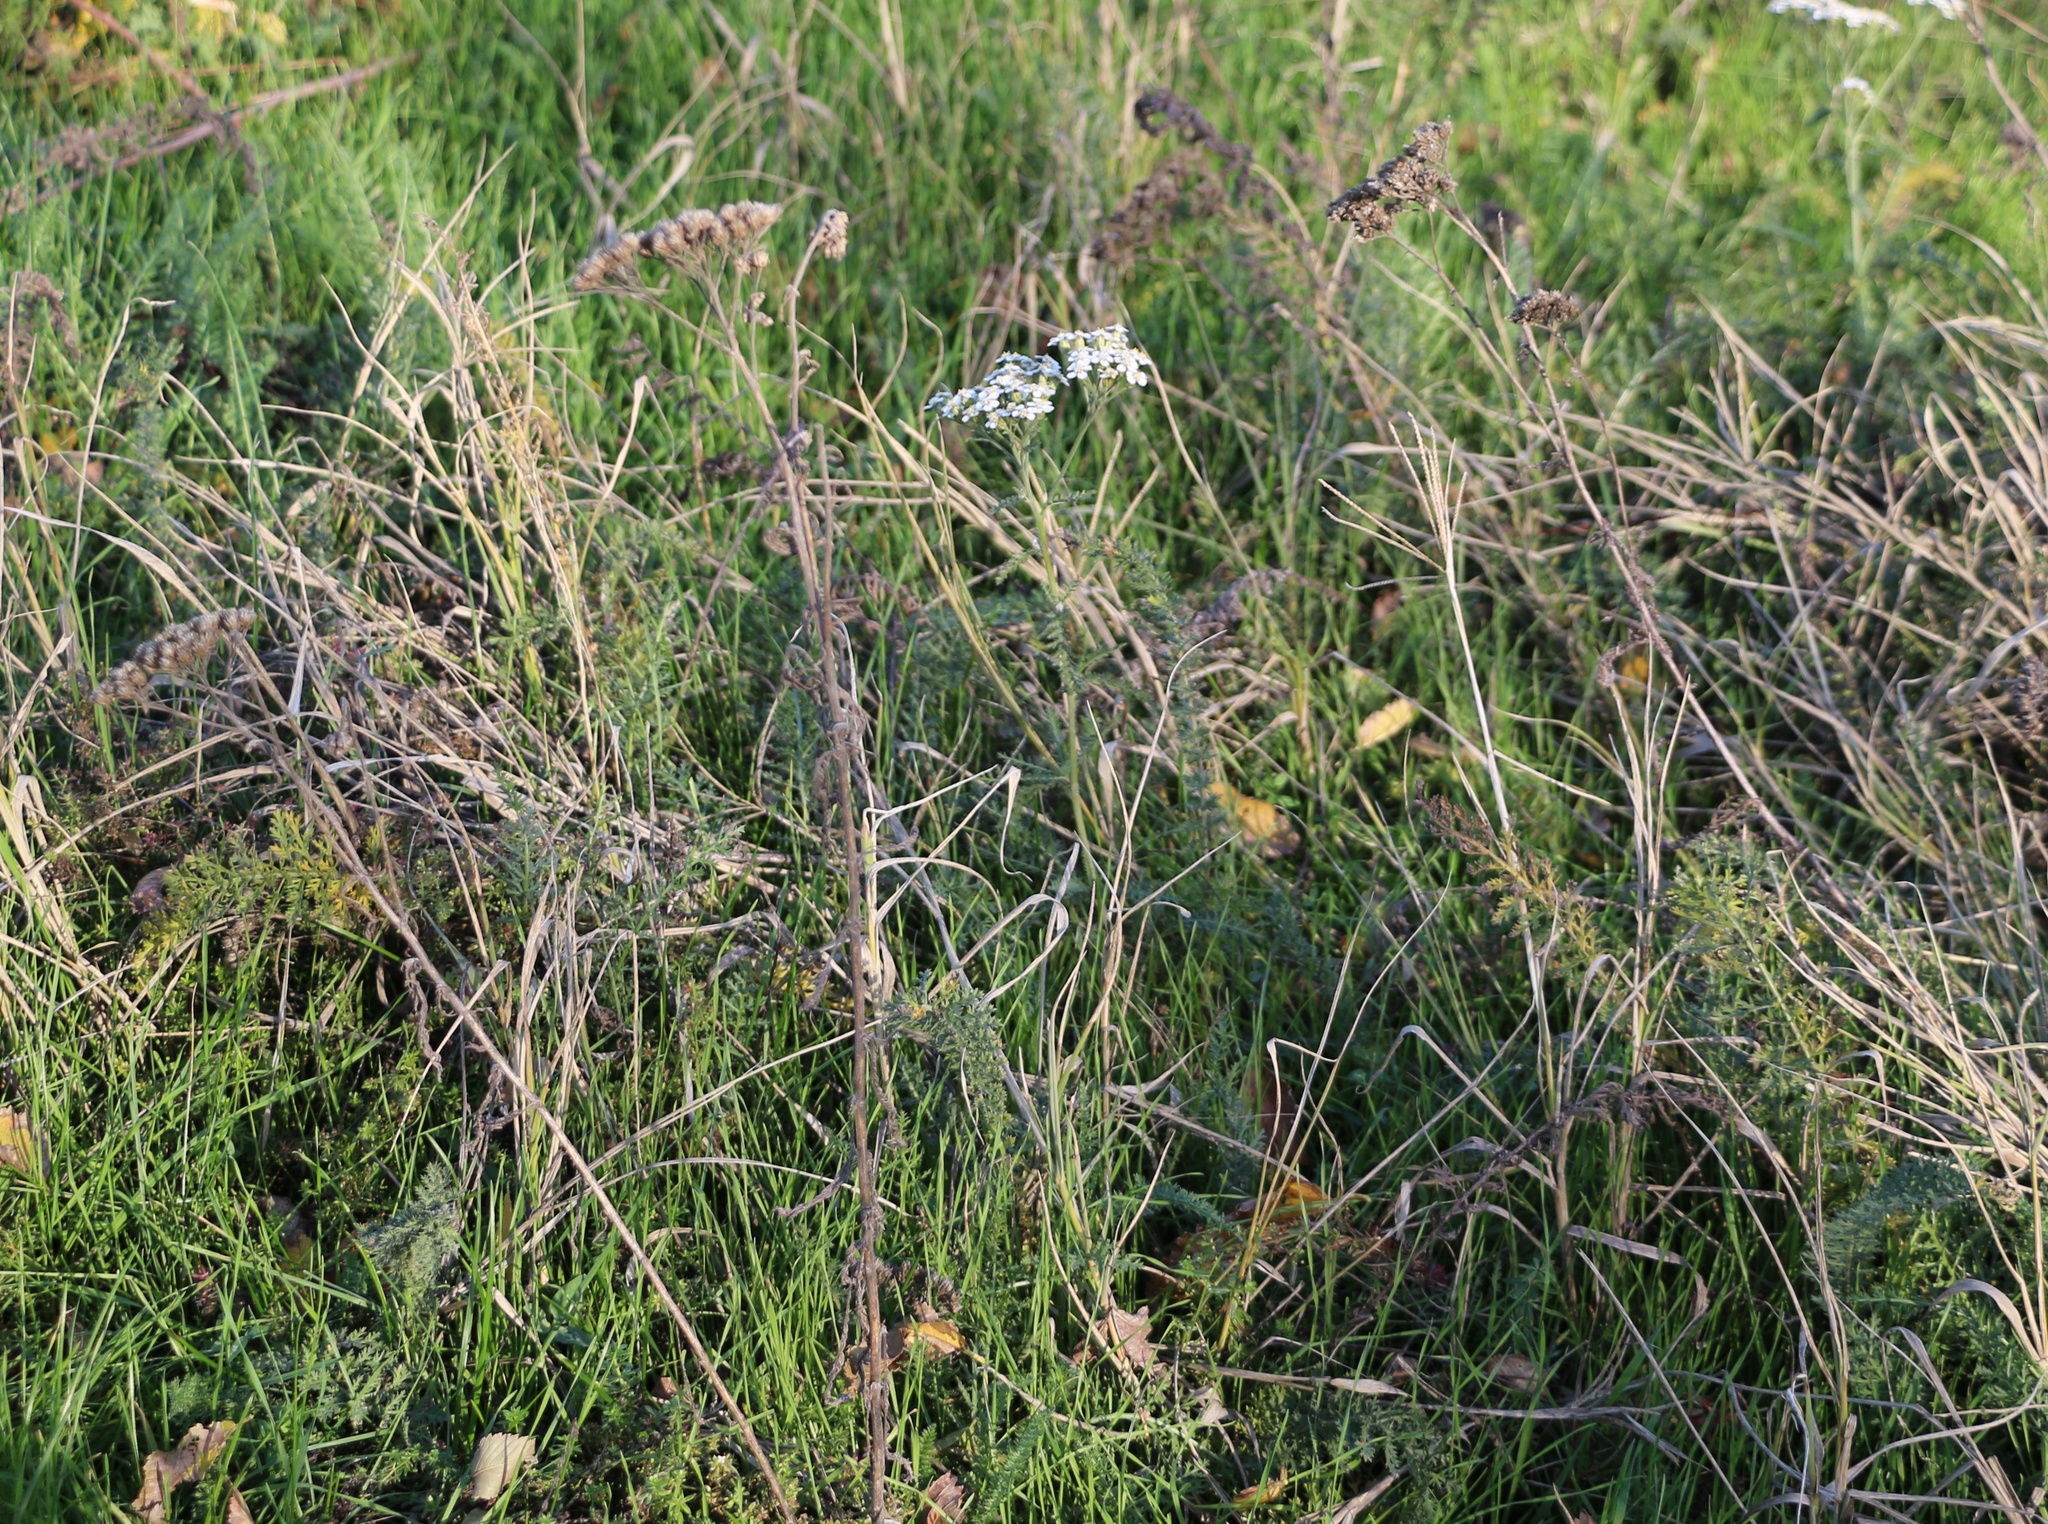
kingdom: Plantae
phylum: Tracheophyta
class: Magnoliopsida
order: Asterales
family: Asteraceae
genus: Achillea
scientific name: Achillea millefolium
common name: Yarrow
